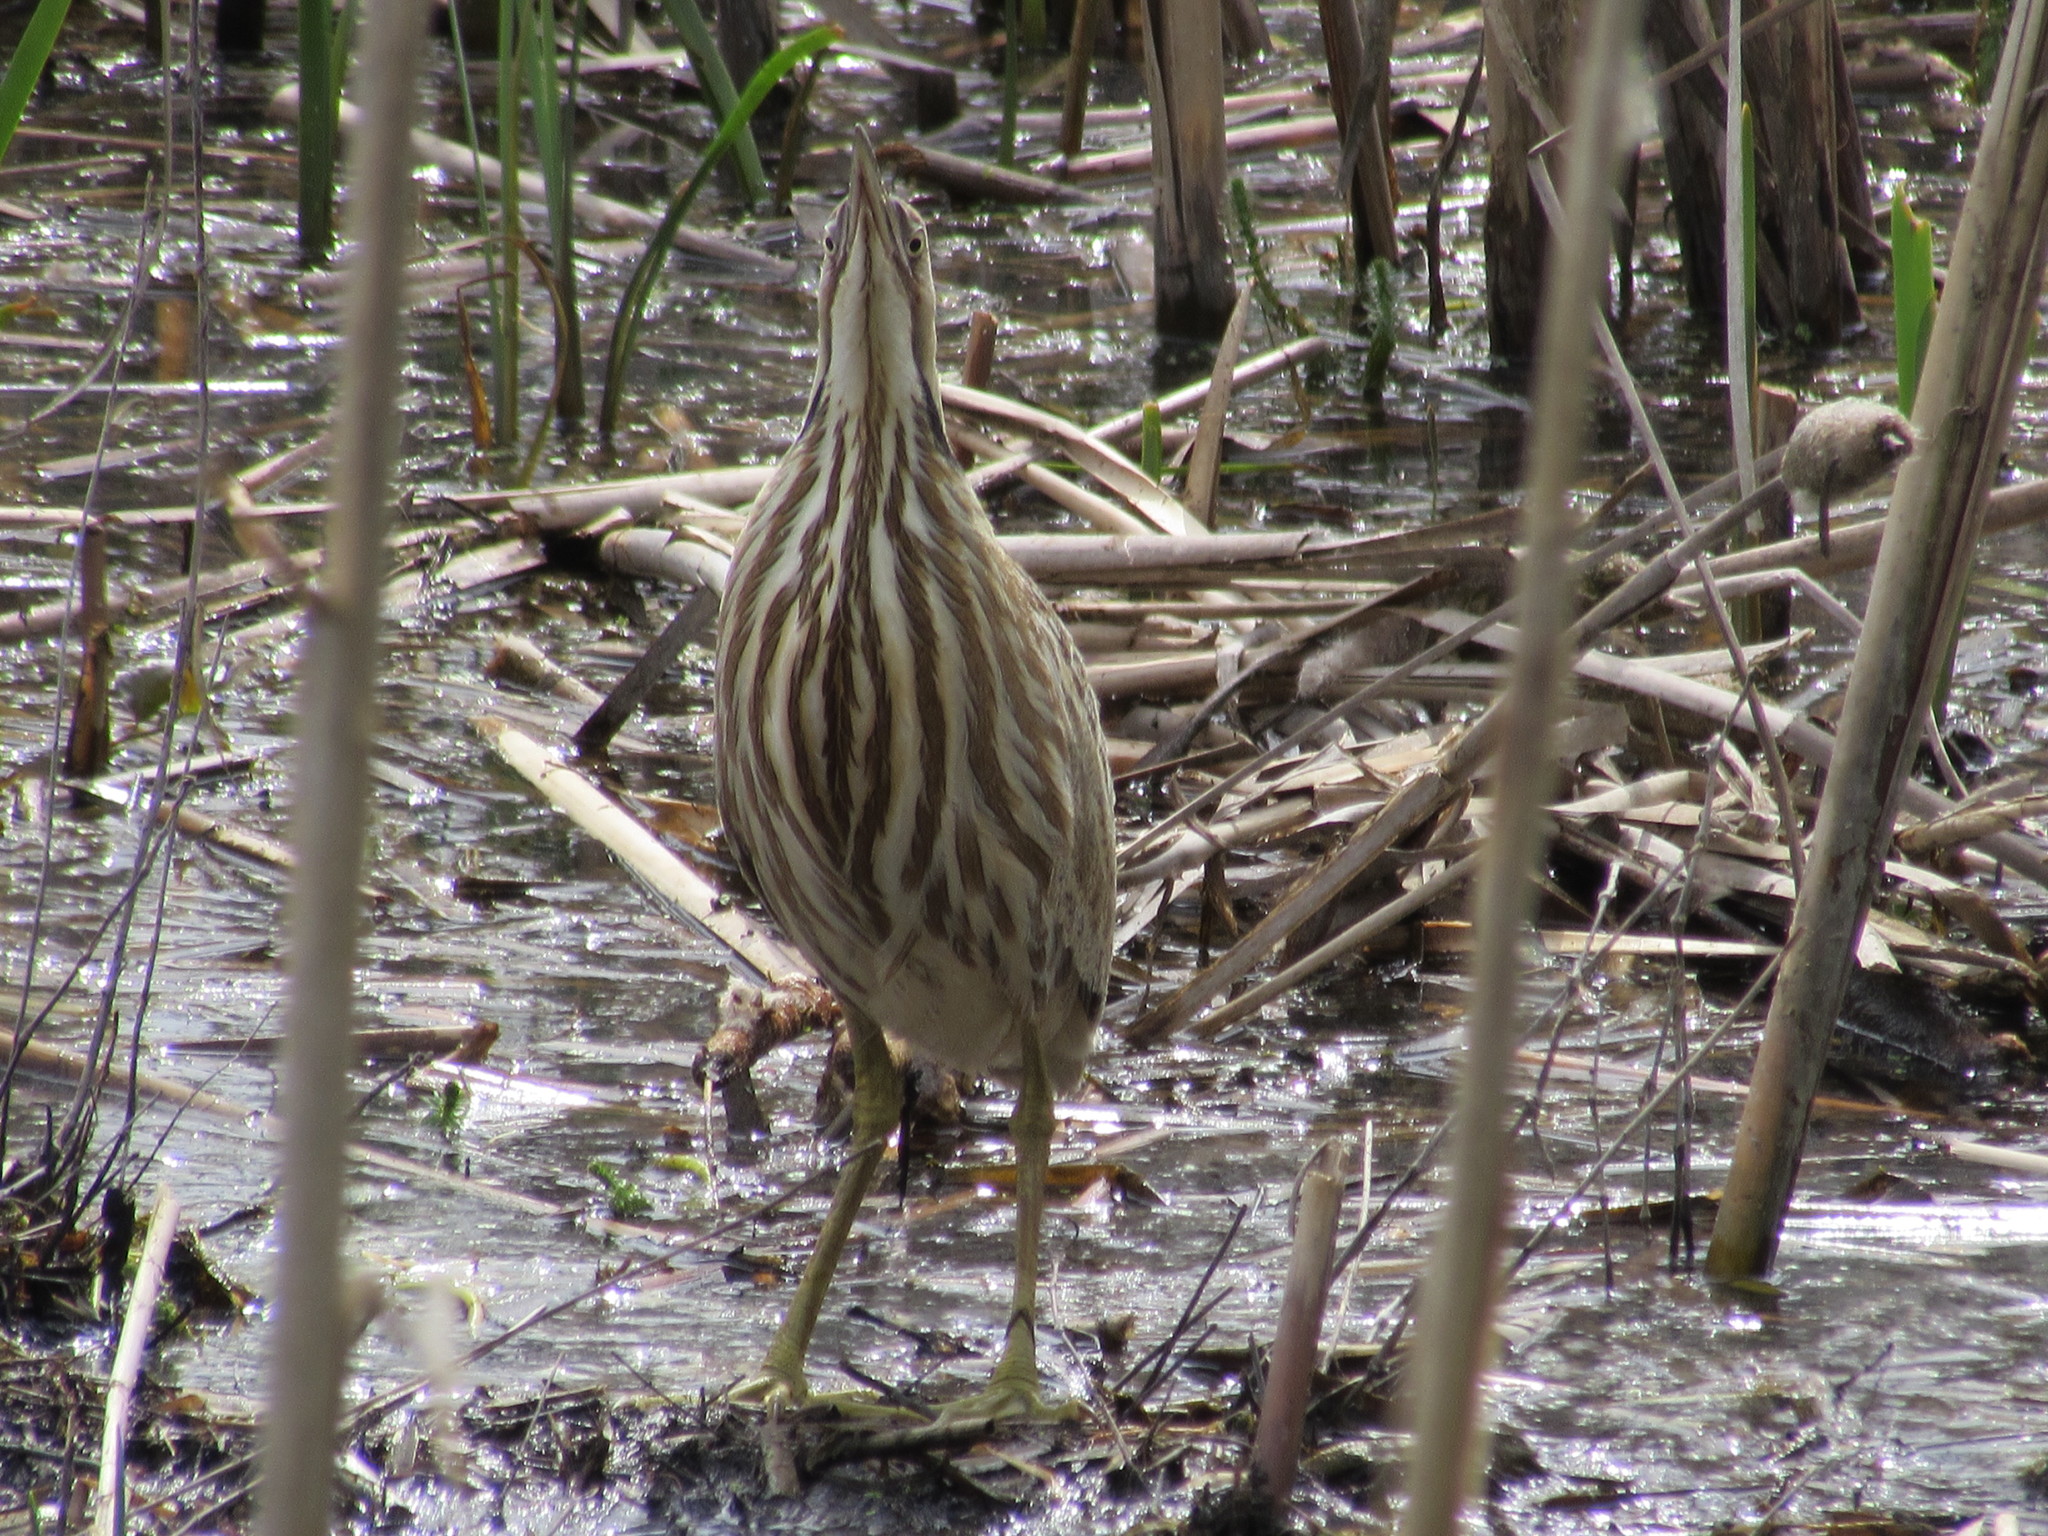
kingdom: Animalia
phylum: Chordata
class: Aves
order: Pelecaniformes
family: Ardeidae
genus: Botaurus
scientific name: Botaurus lentiginosus
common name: American bittern
